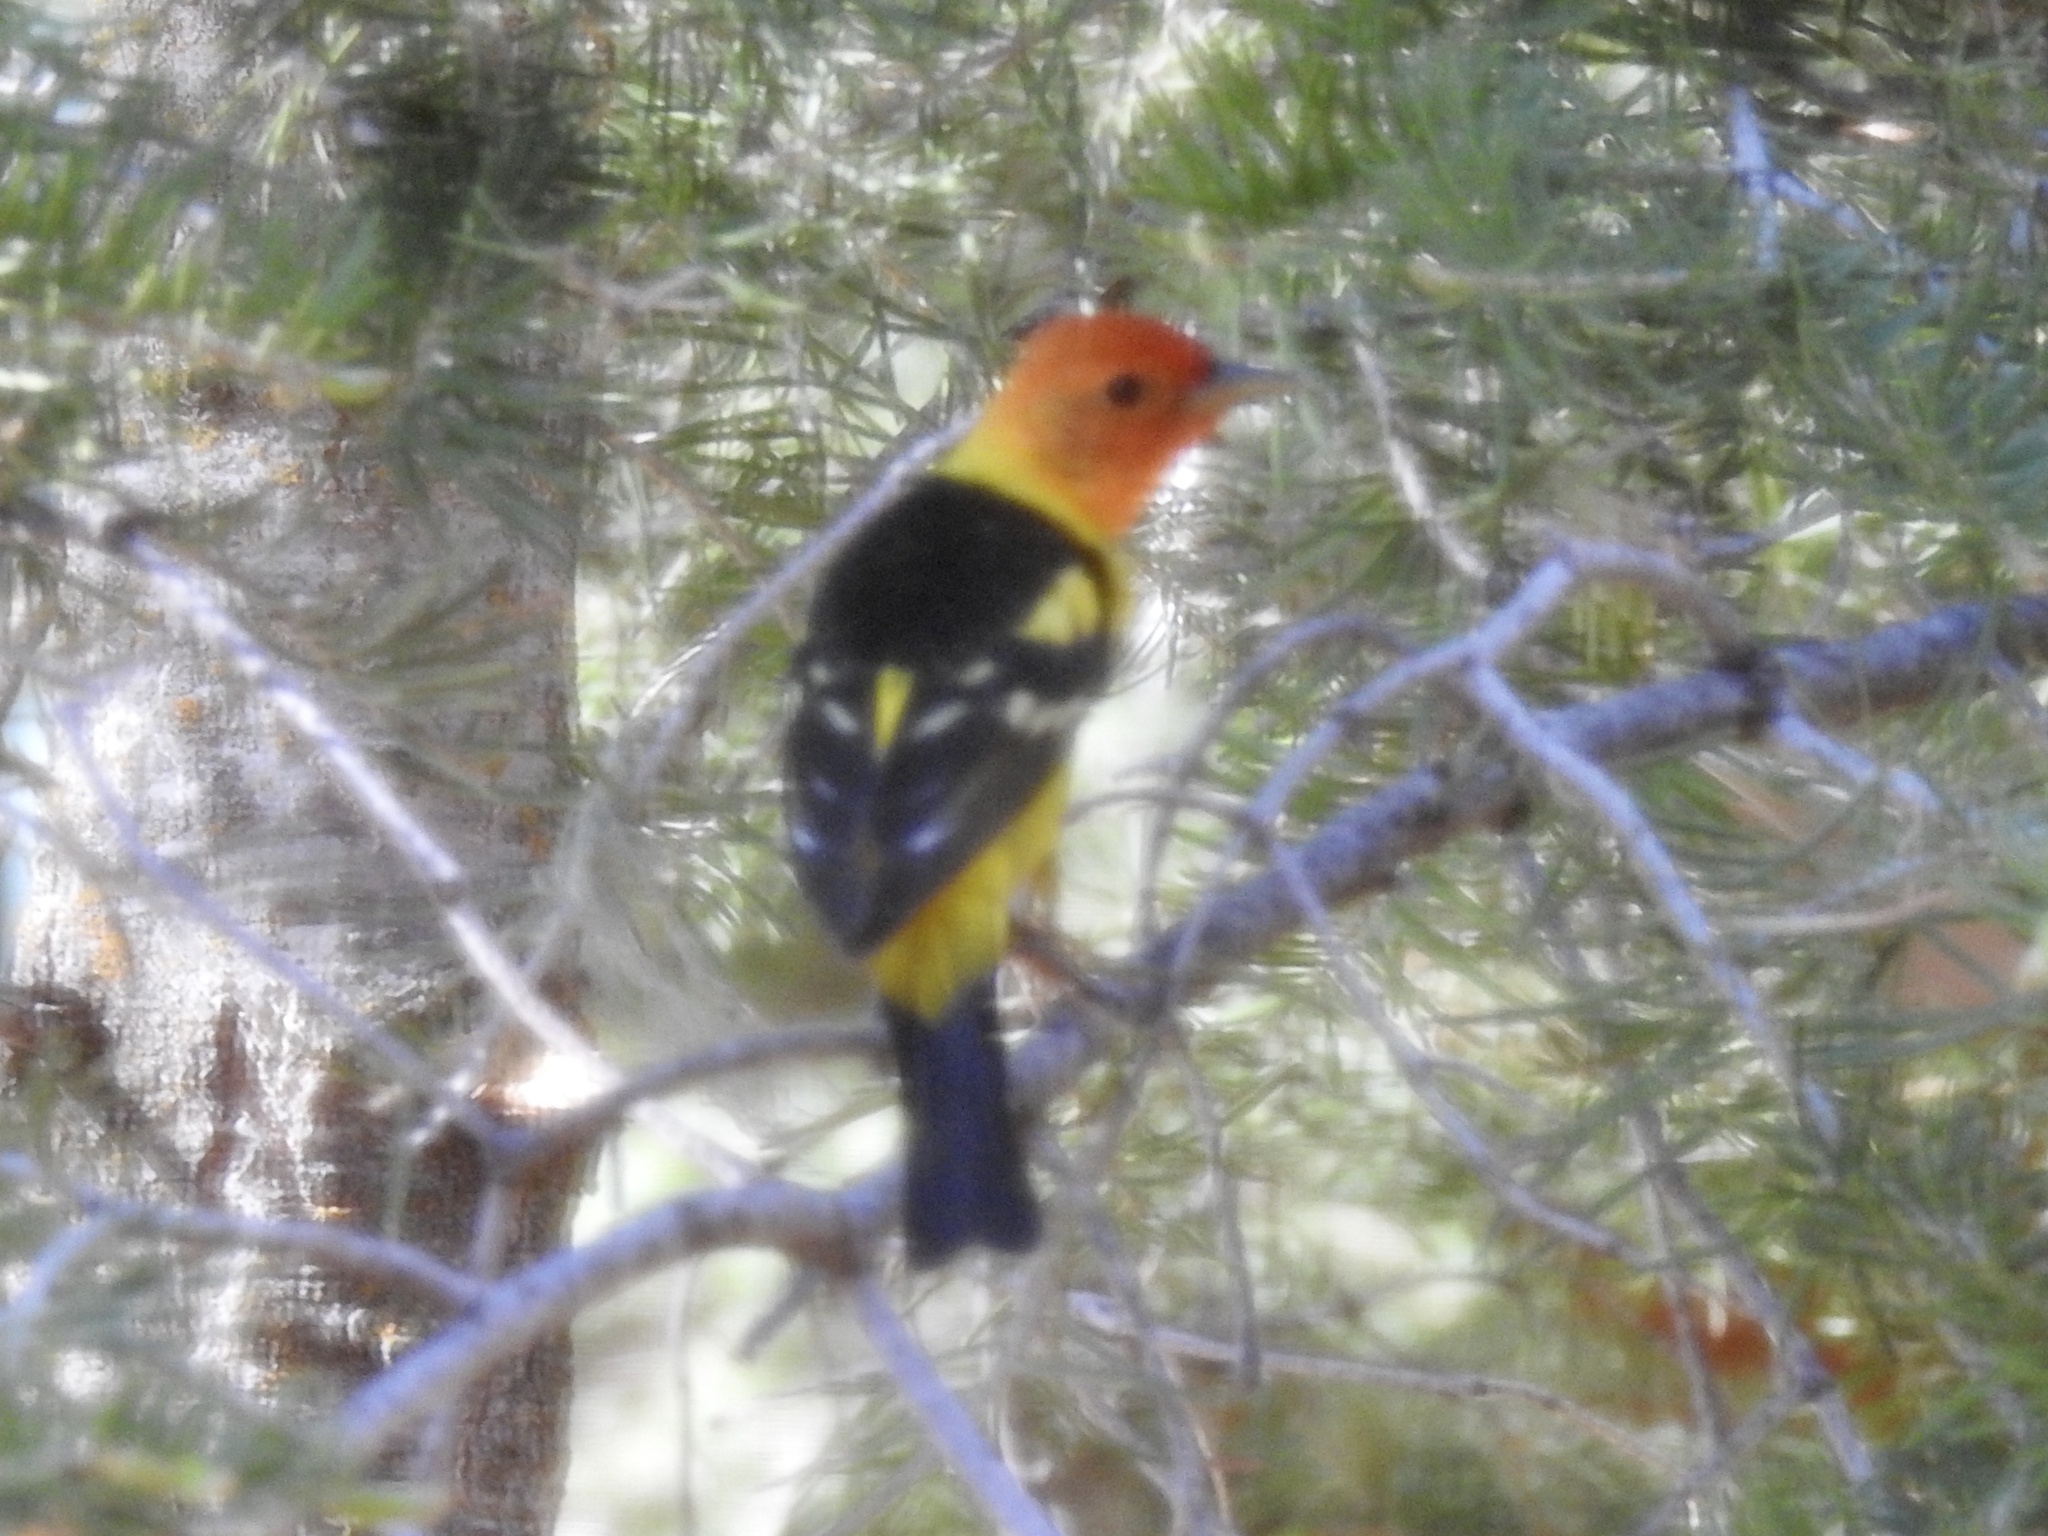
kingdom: Animalia
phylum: Chordata
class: Aves
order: Passeriformes
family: Cardinalidae
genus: Piranga
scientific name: Piranga ludoviciana
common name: Western tanager
